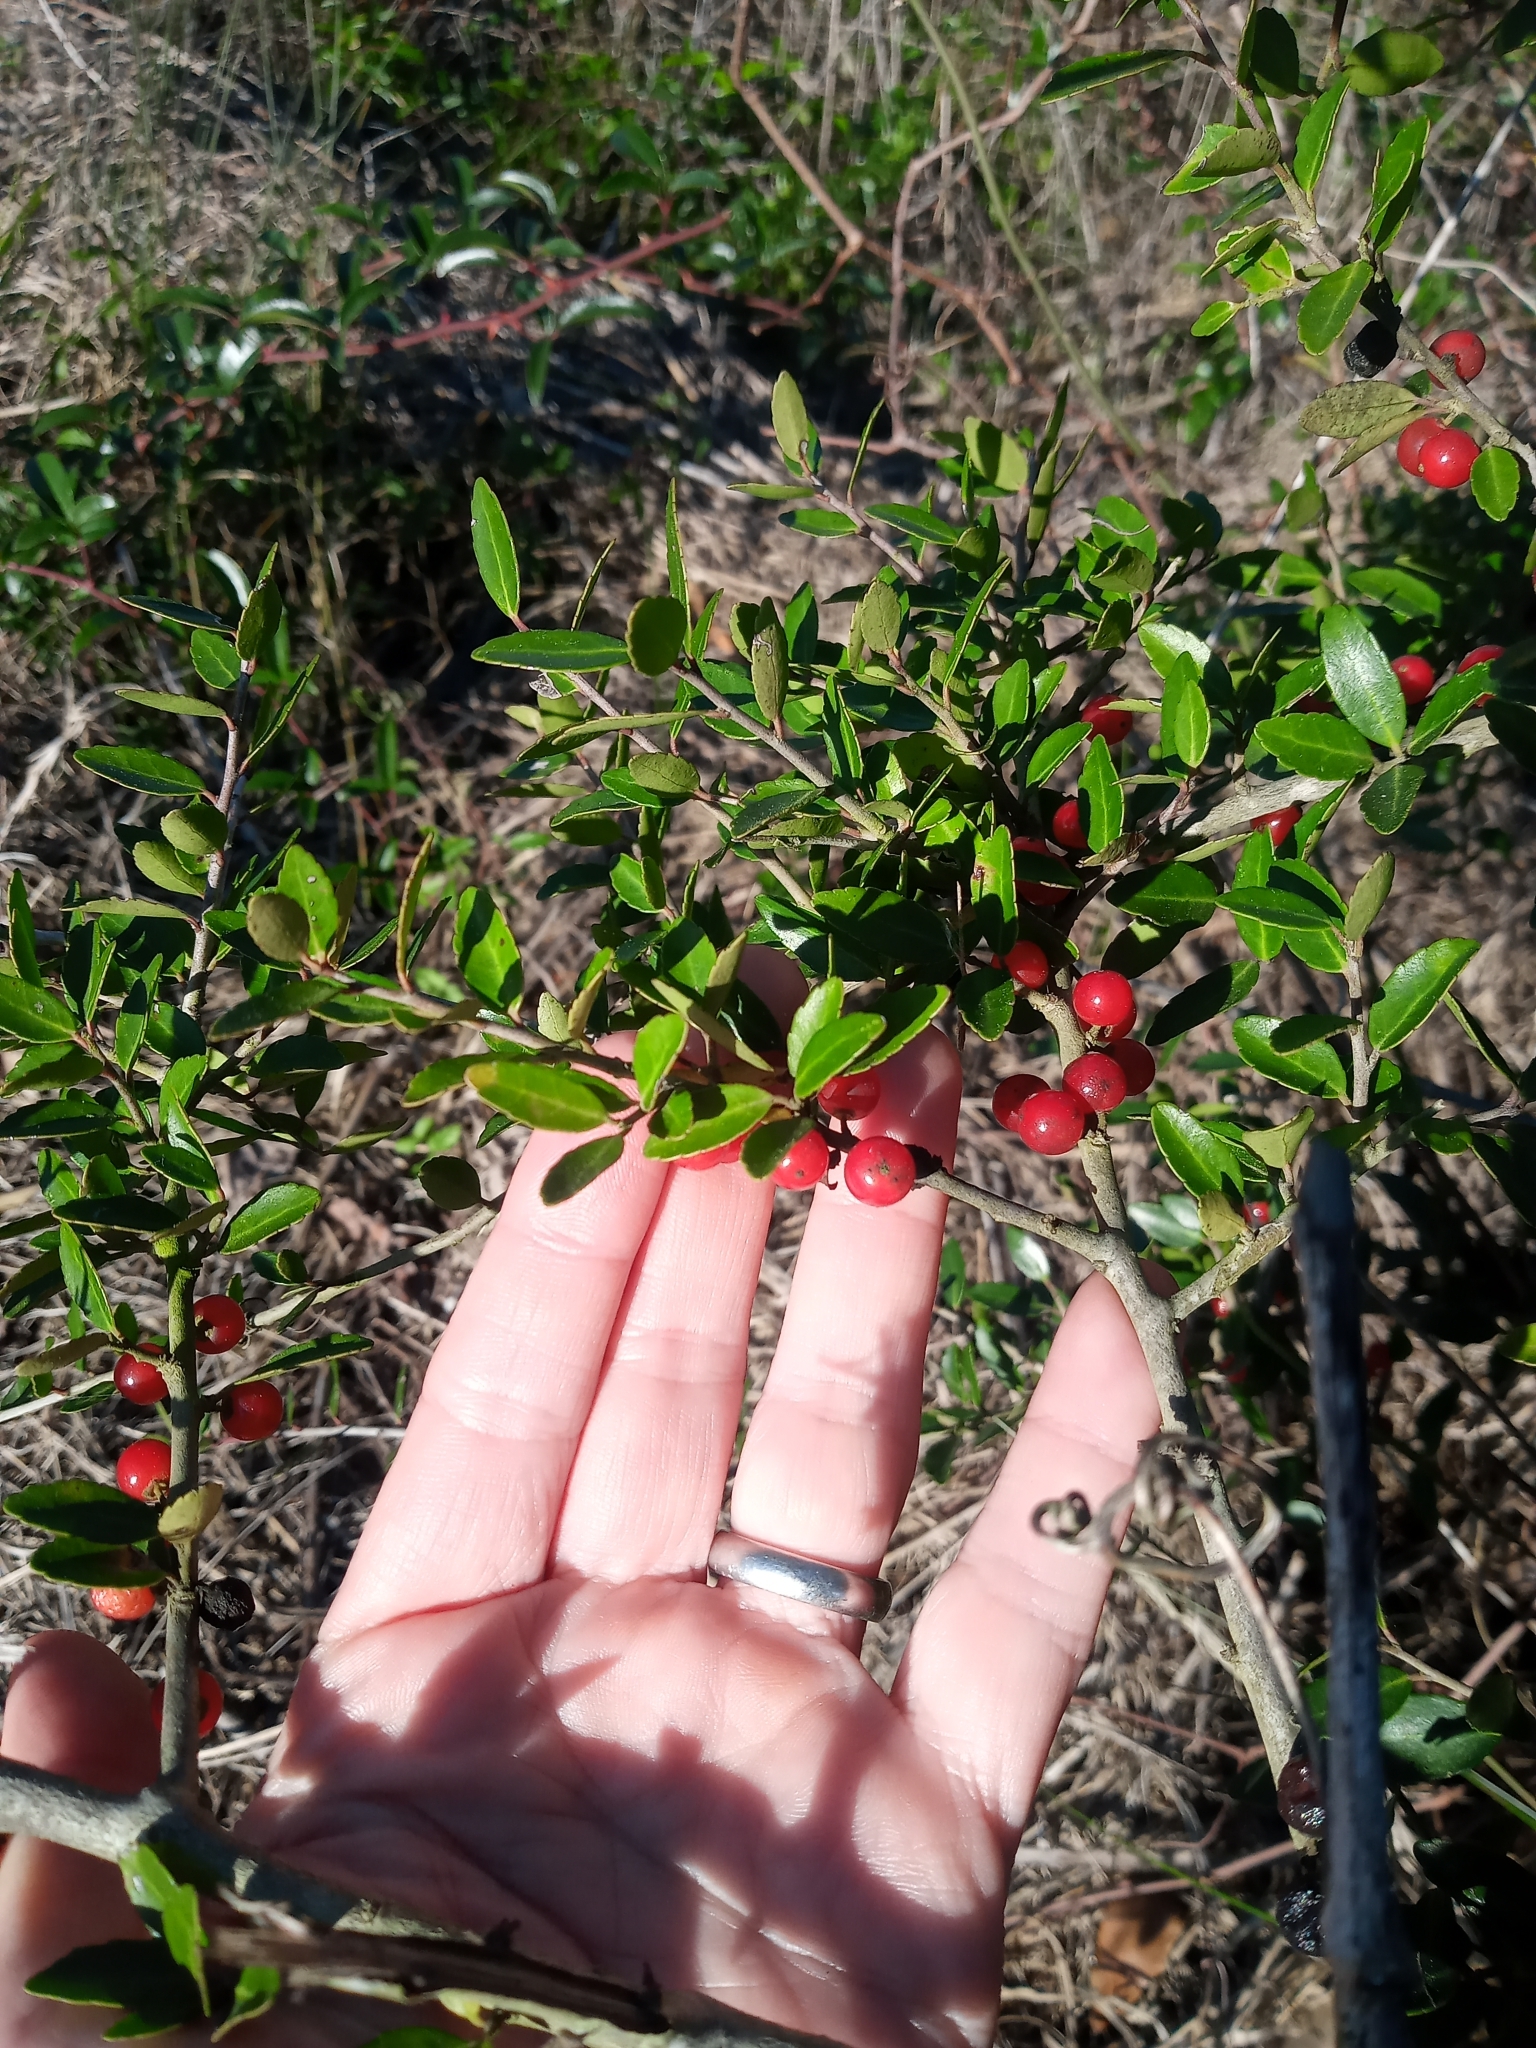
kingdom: Plantae
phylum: Tracheophyta
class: Magnoliopsida
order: Aquifoliales
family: Aquifoliaceae
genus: Ilex
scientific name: Ilex vomitoria
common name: Yaupon holly
